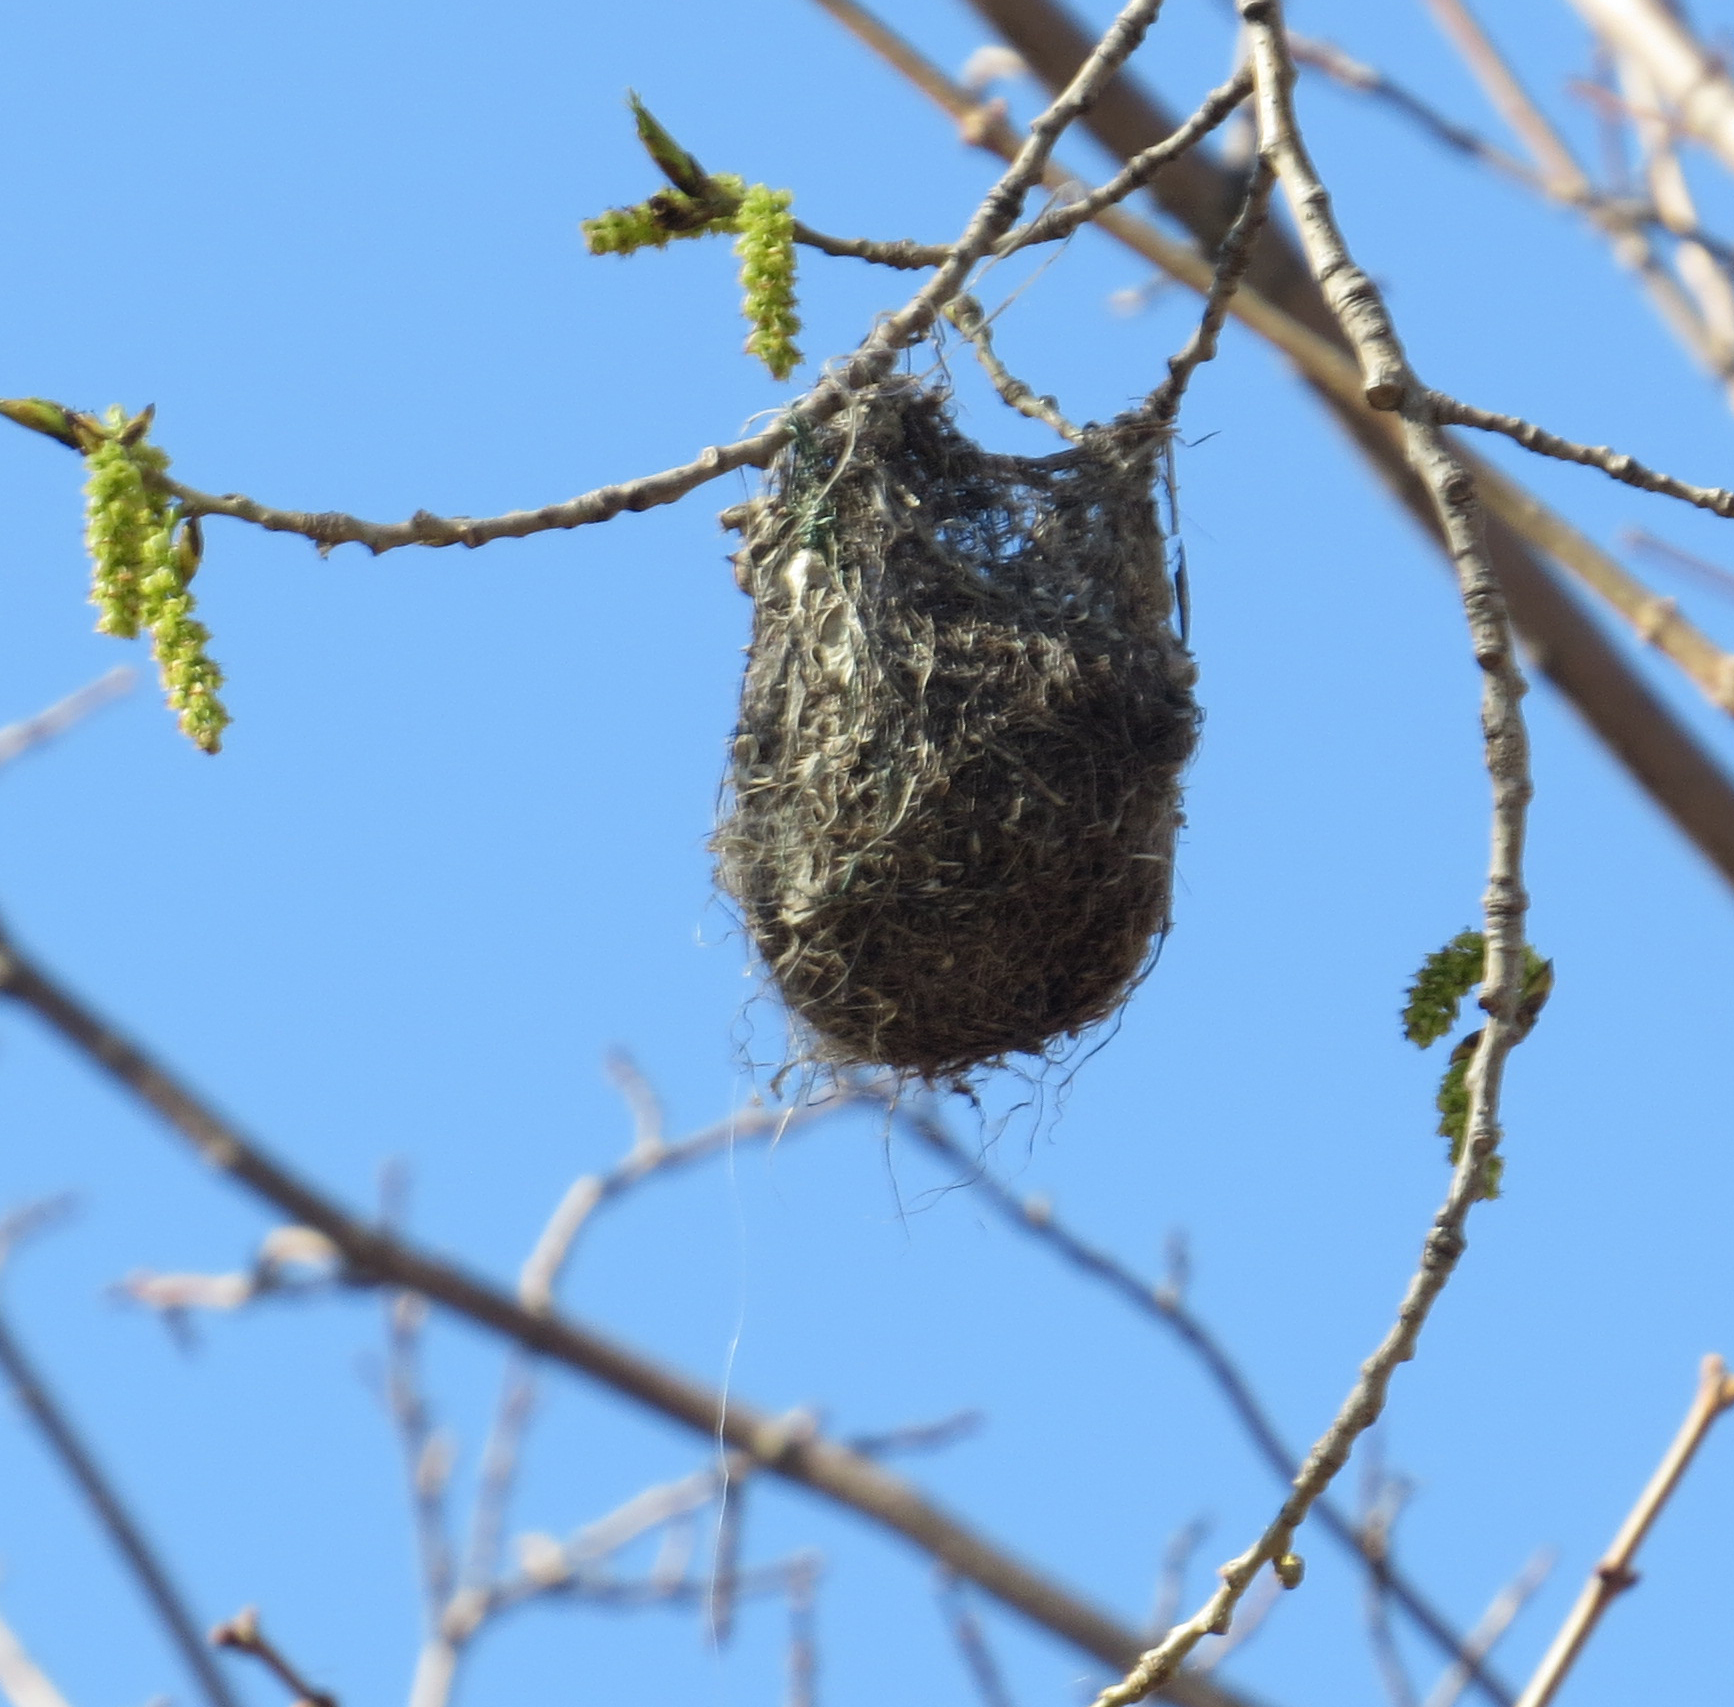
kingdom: Animalia
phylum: Chordata
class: Aves
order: Passeriformes
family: Icteridae
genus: Icterus
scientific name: Icterus galbula
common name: Baltimore oriole
